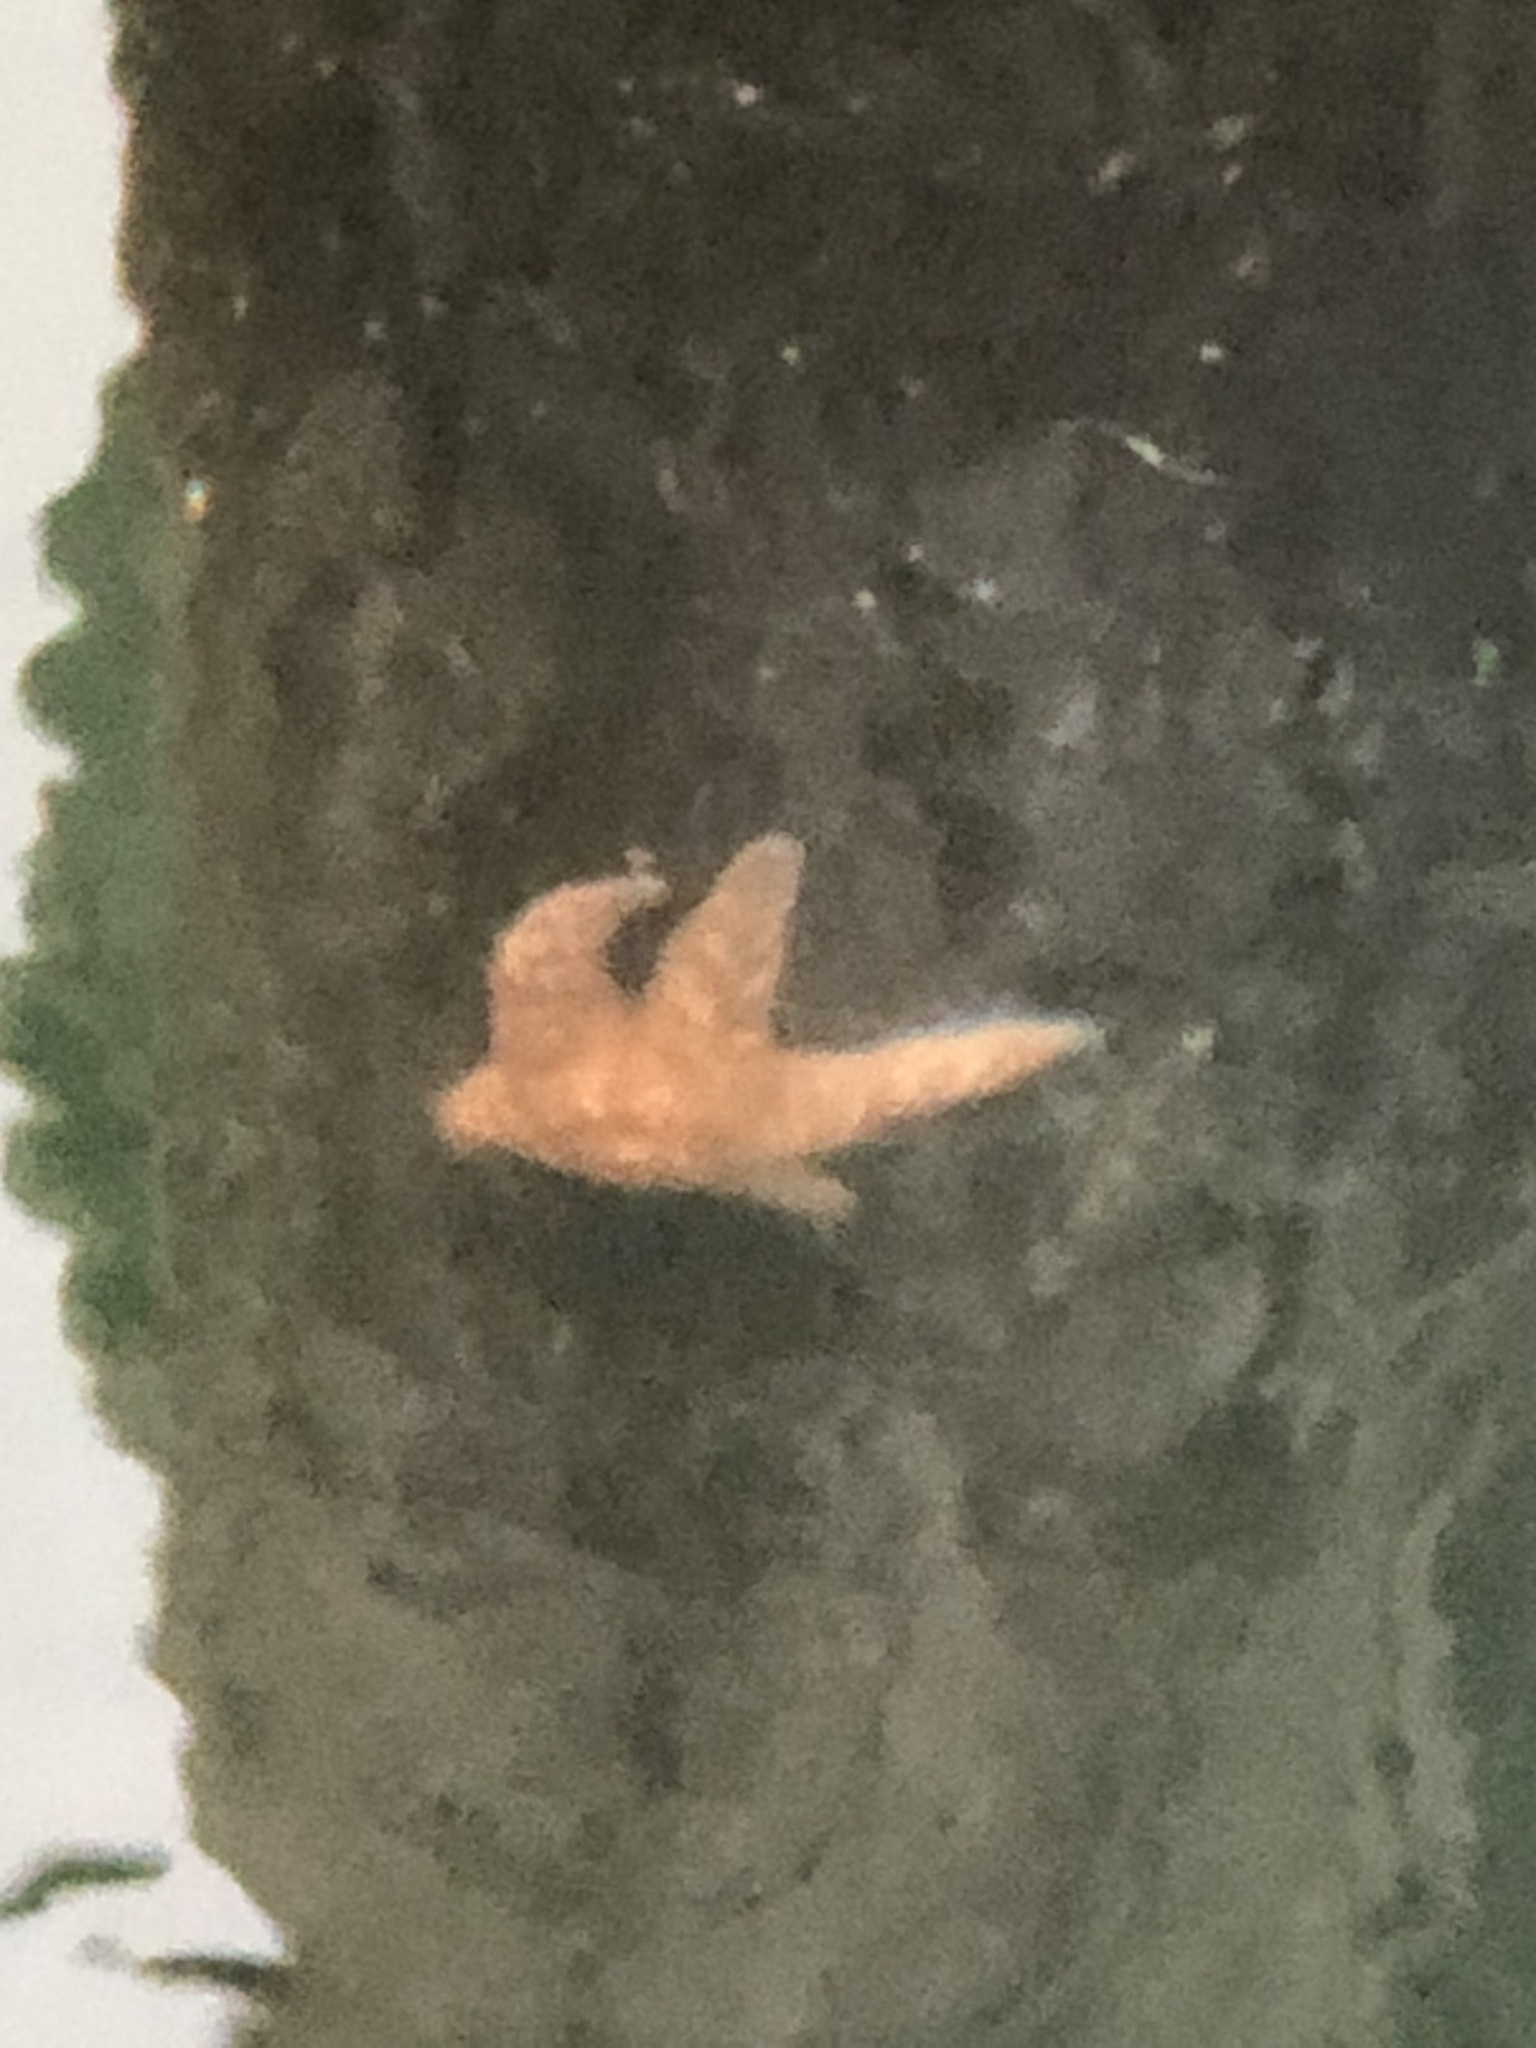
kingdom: Animalia
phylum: Echinodermata
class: Asteroidea
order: Forcipulatida
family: Asteriidae
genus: Pisaster
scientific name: Pisaster ochraceus
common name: Ochre stars
